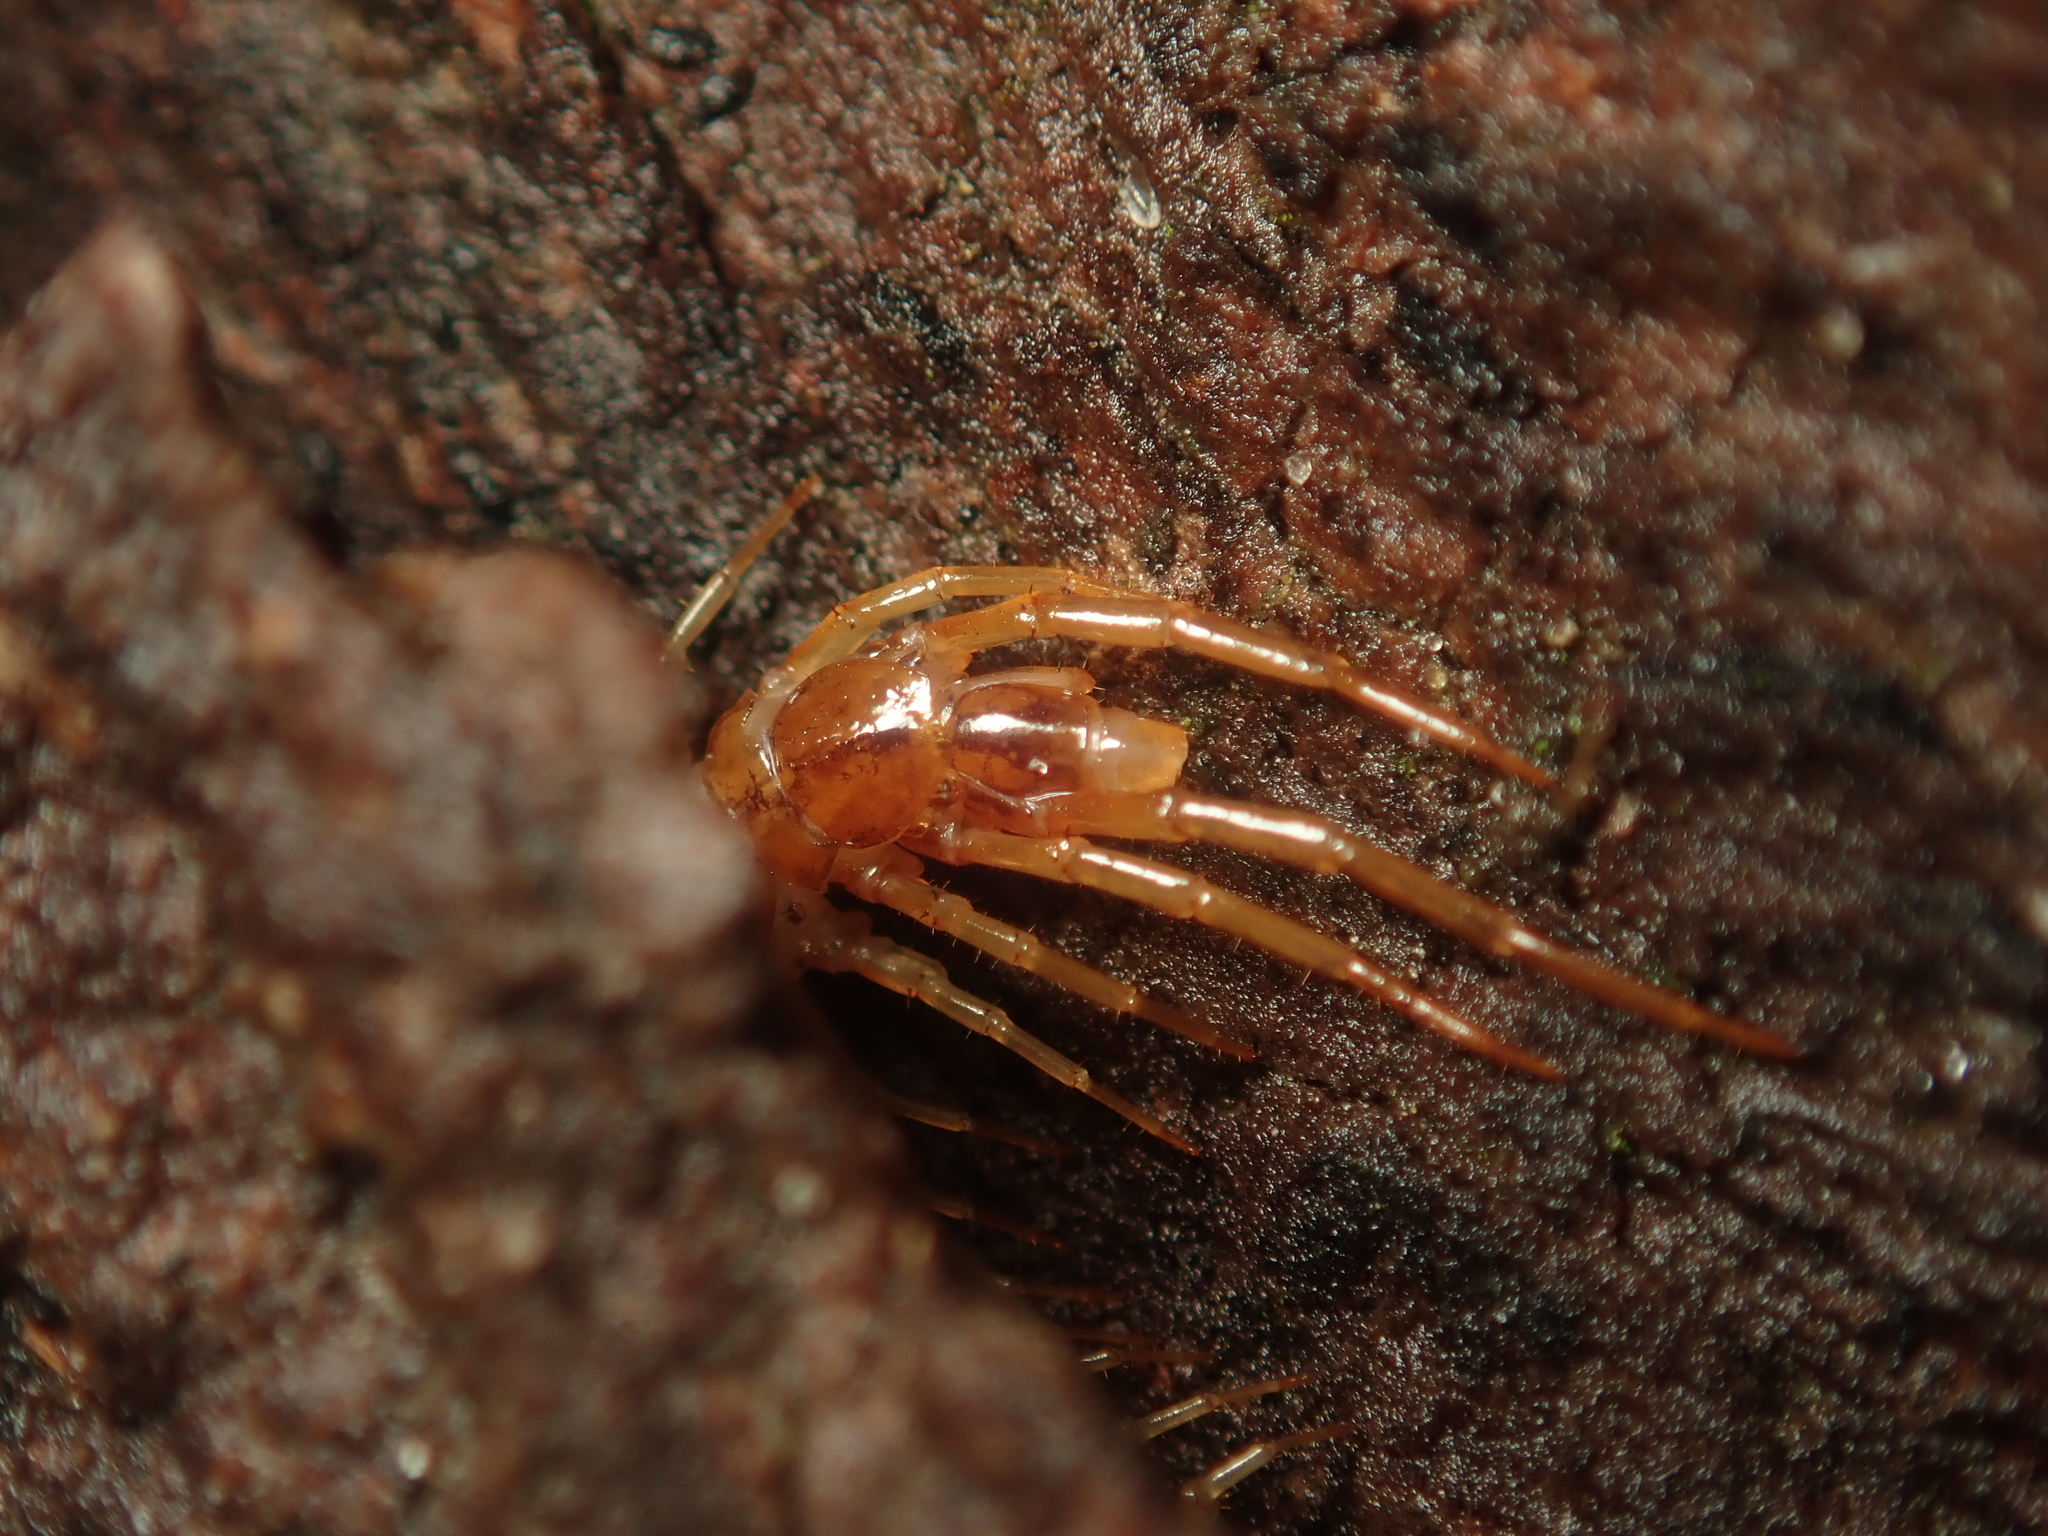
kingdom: Animalia
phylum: Arthropoda
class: Chilopoda
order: Lithobiomorpha
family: Lithobiidae
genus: Lithobius
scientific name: Lithobius forficatus
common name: Centipede
